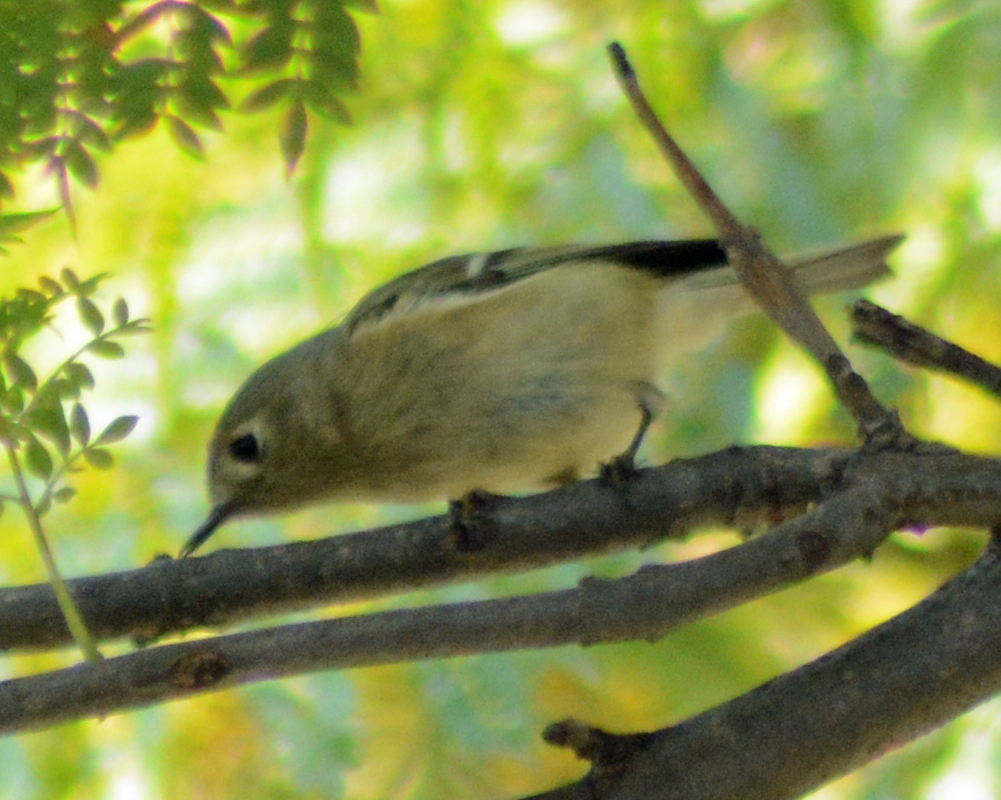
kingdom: Animalia
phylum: Chordata
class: Aves
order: Passeriformes
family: Regulidae
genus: Regulus
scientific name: Regulus calendula
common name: Ruby-crowned kinglet
